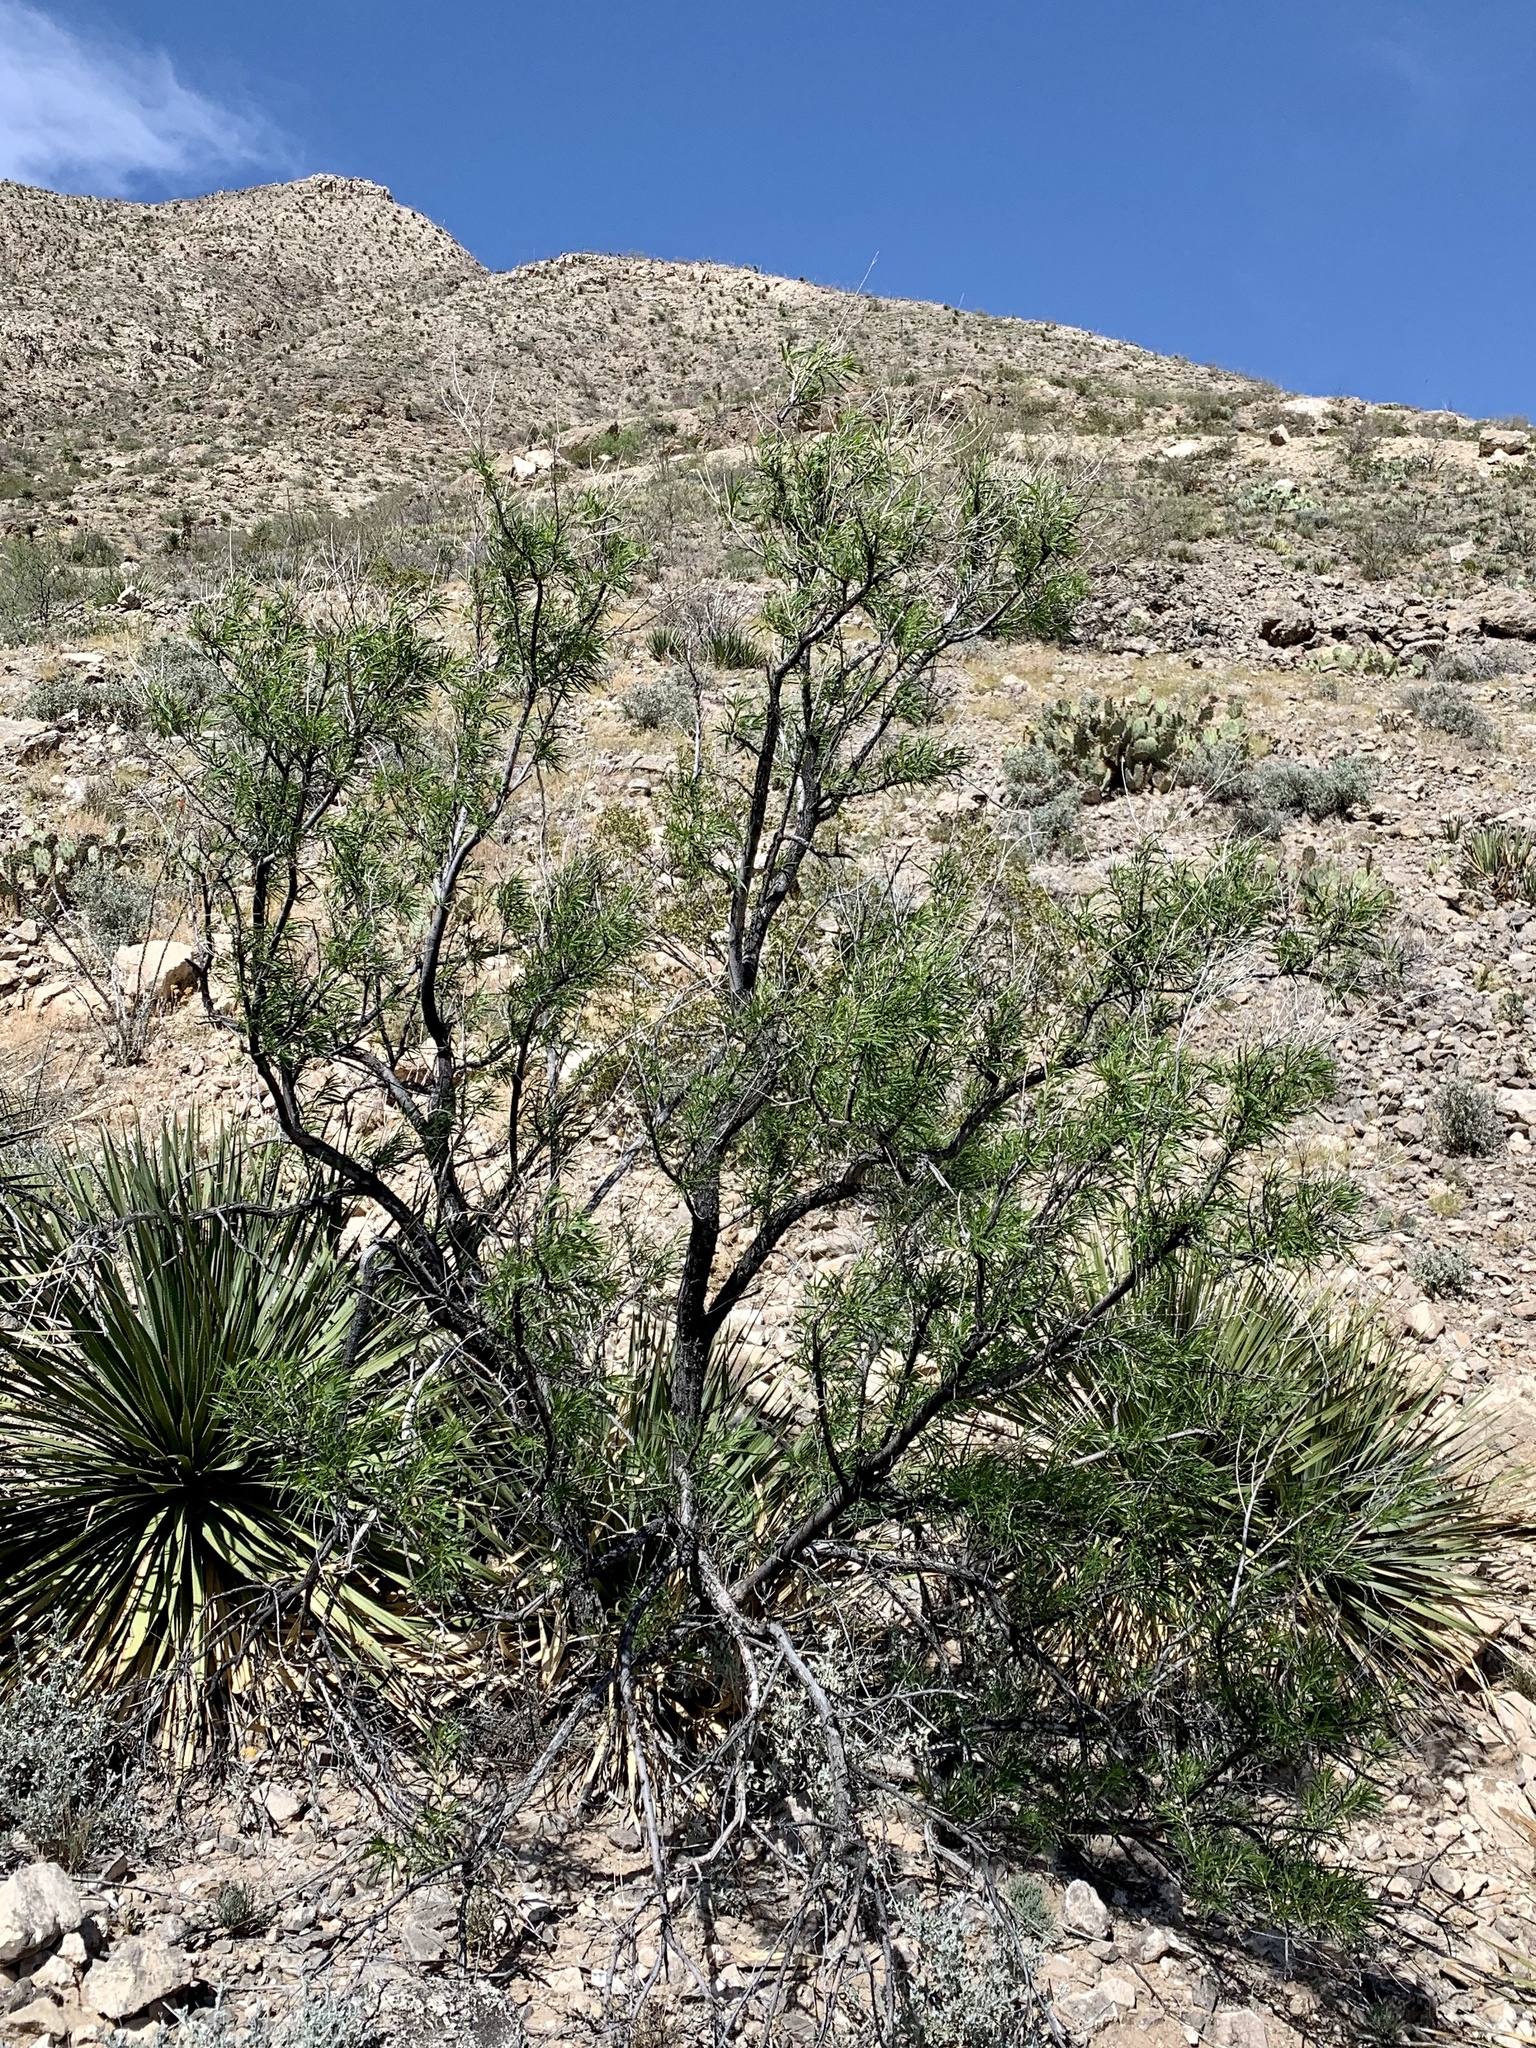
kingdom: Plantae
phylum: Tracheophyta
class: Magnoliopsida
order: Lamiales
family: Bignoniaceae
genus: Chilopsis
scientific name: Chilopsis linearis
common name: Desert-willow
